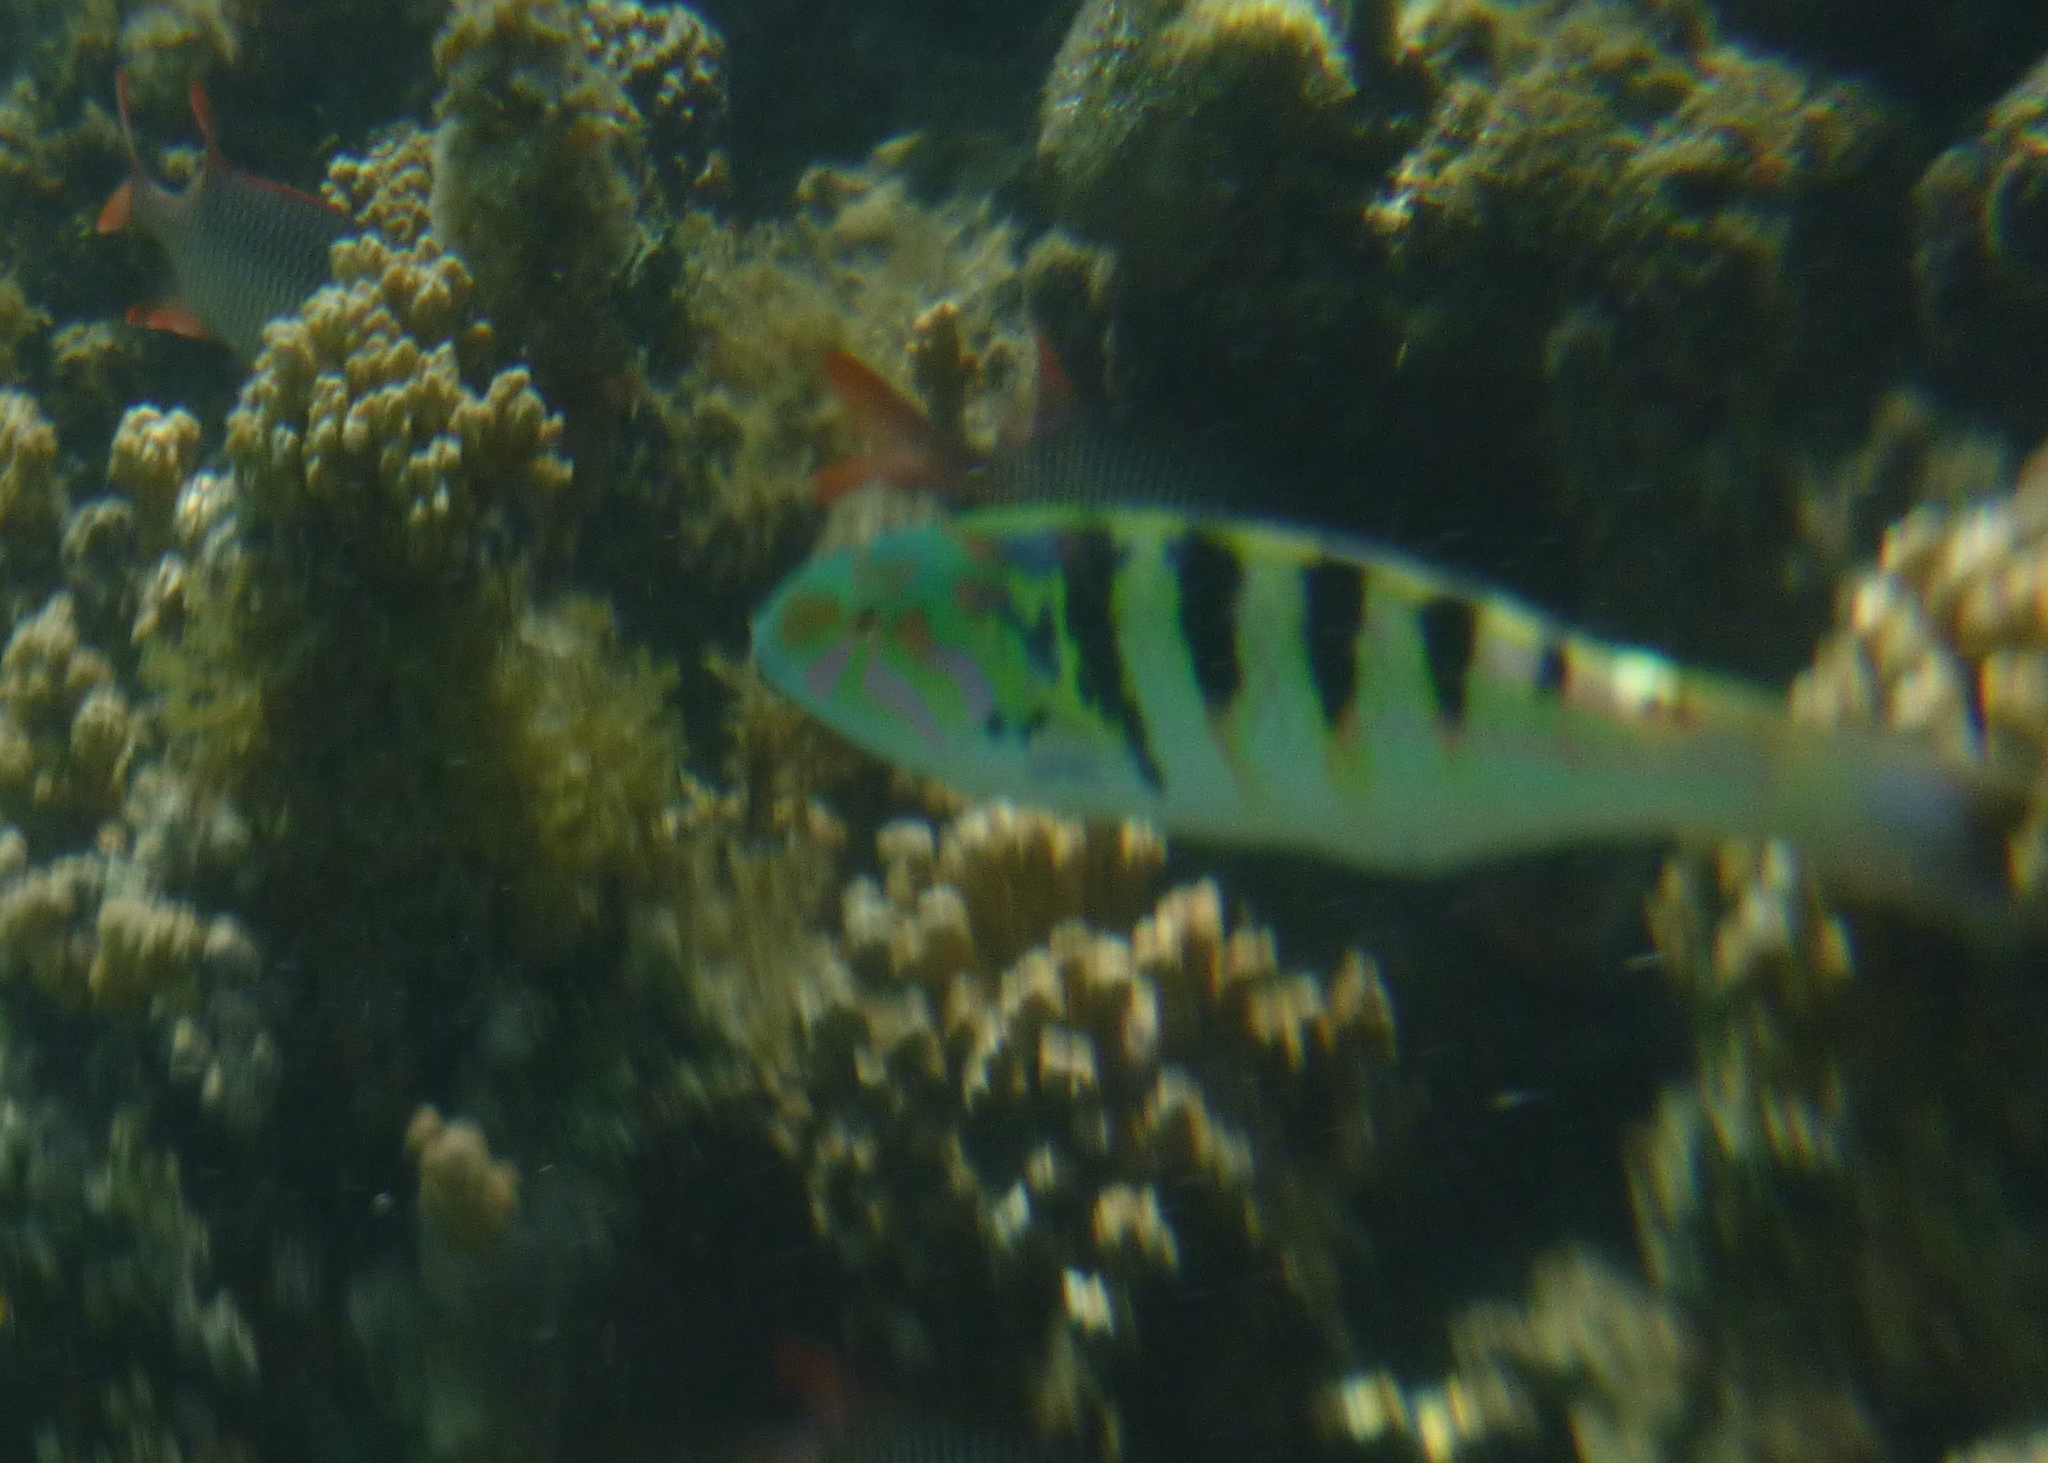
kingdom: Animalia
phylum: Chordata
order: Perciformes
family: Labridae
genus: Thalassoma
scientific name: Thalassoma hardwicke
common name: Sixbar wrasse
